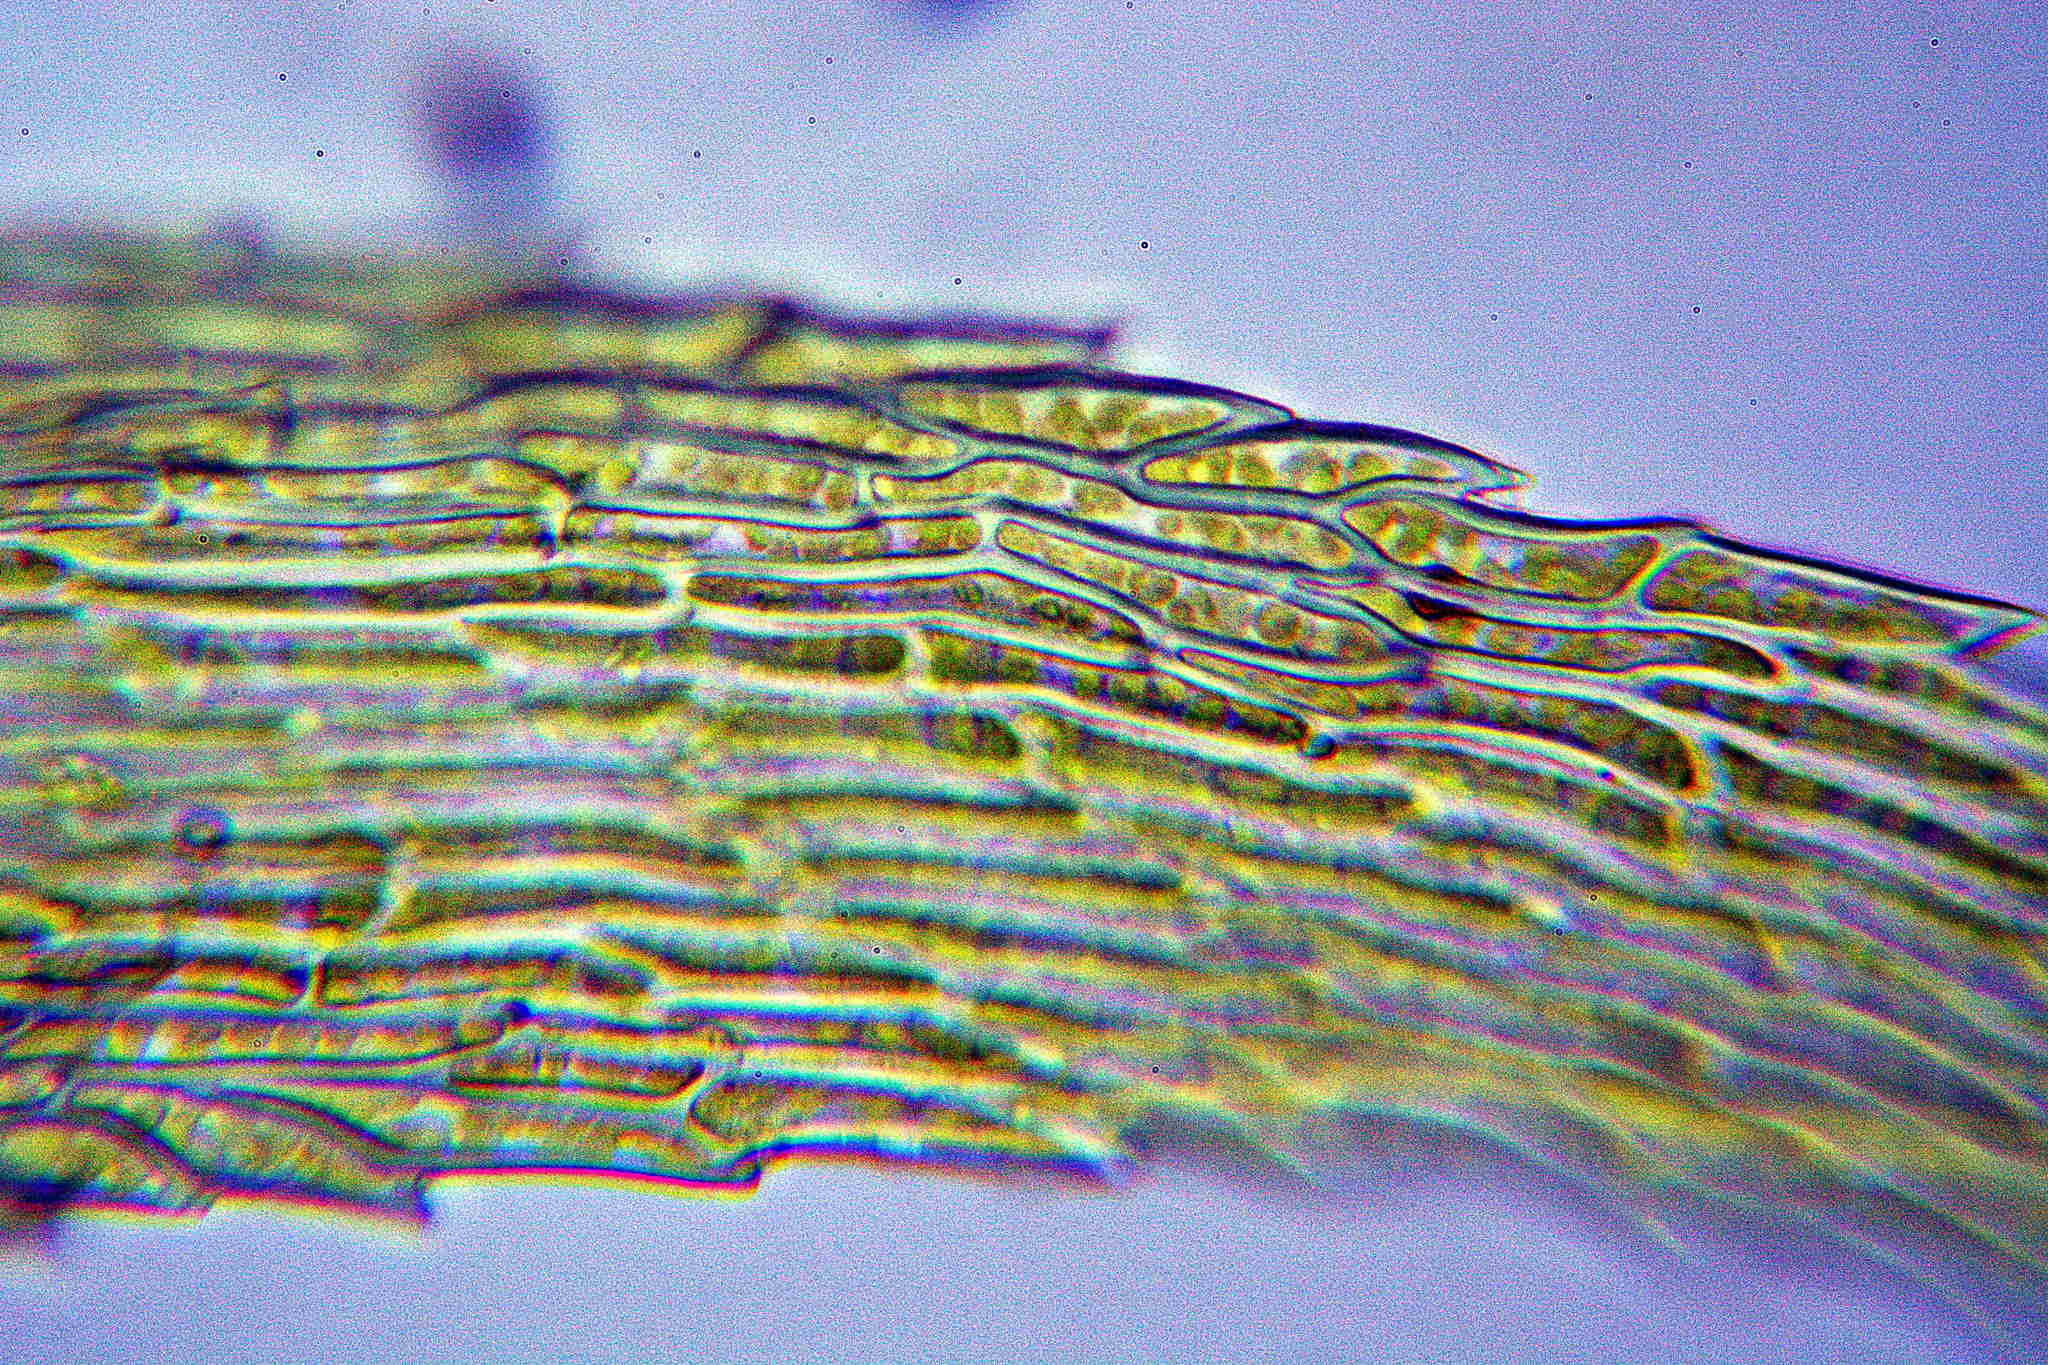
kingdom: Plantae
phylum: Bryophyta
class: Bryopsida
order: Hypnales
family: Myuriaceae
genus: Ctenidium
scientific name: Ctenidium molluscum
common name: Chalk comb-moss
